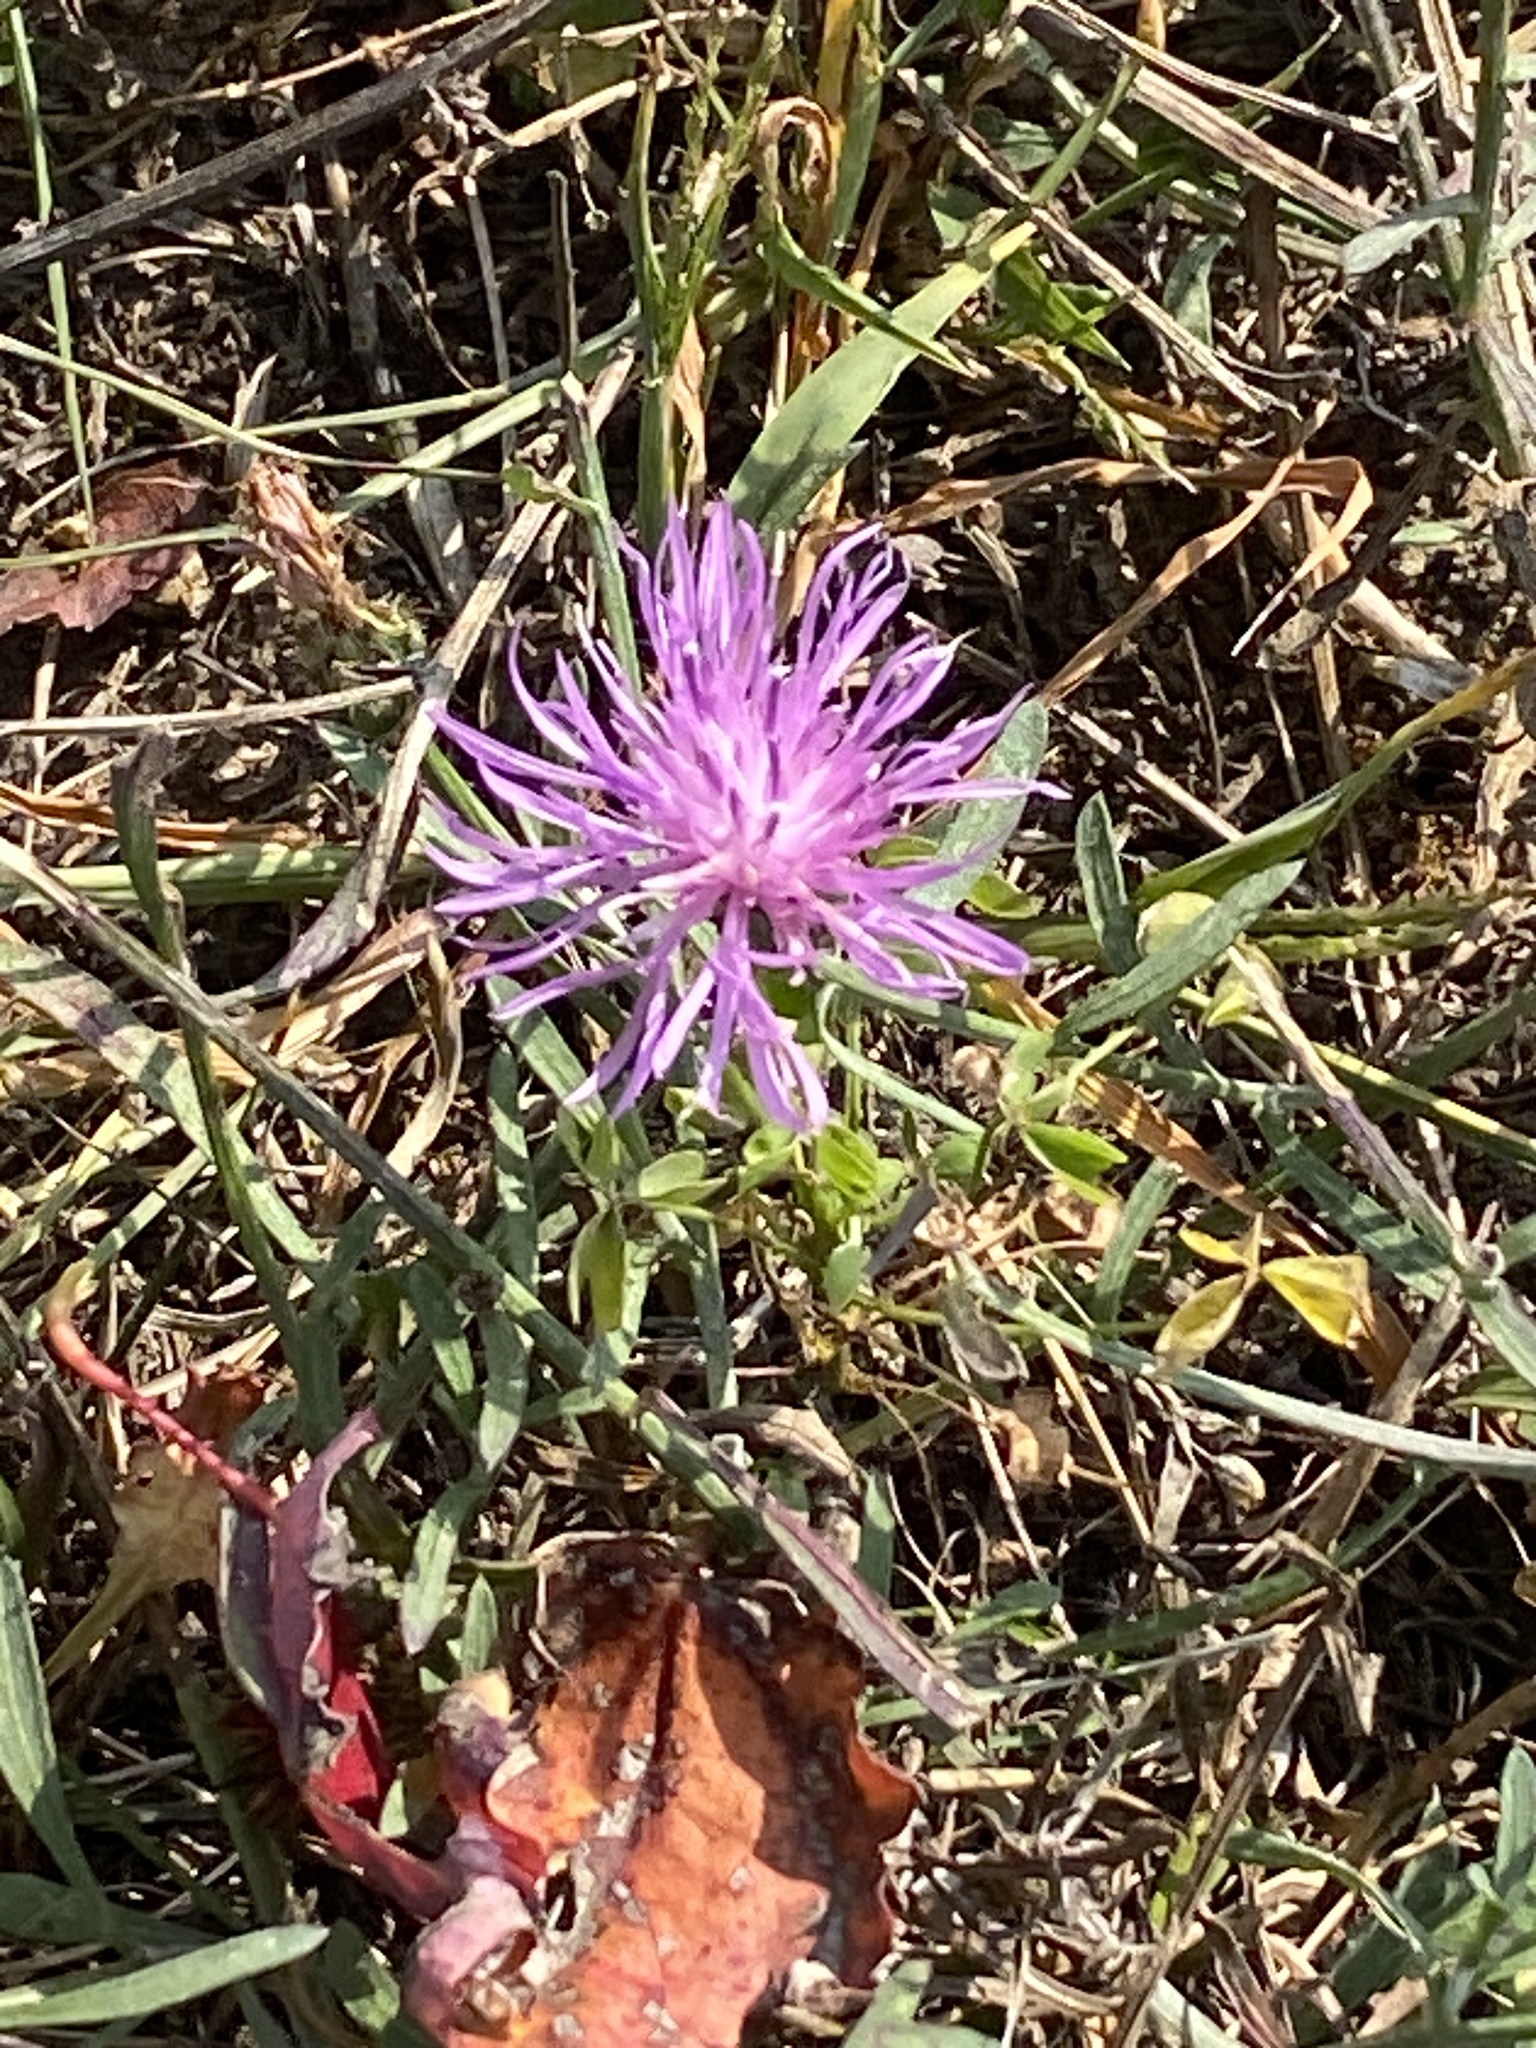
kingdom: Plantae
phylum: Tracheophyta
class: Magnoliopsida
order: Asterales
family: Asteraceae
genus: Centaurea
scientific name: Centaurea stoebe
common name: Spotted knapweed
